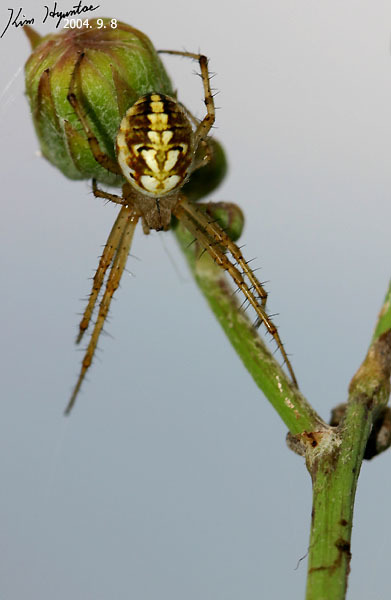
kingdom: Animalia
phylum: Arthropoda
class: Arachnida
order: Araneae
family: Araneidae
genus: Neoscona
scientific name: Neoscona adianta
